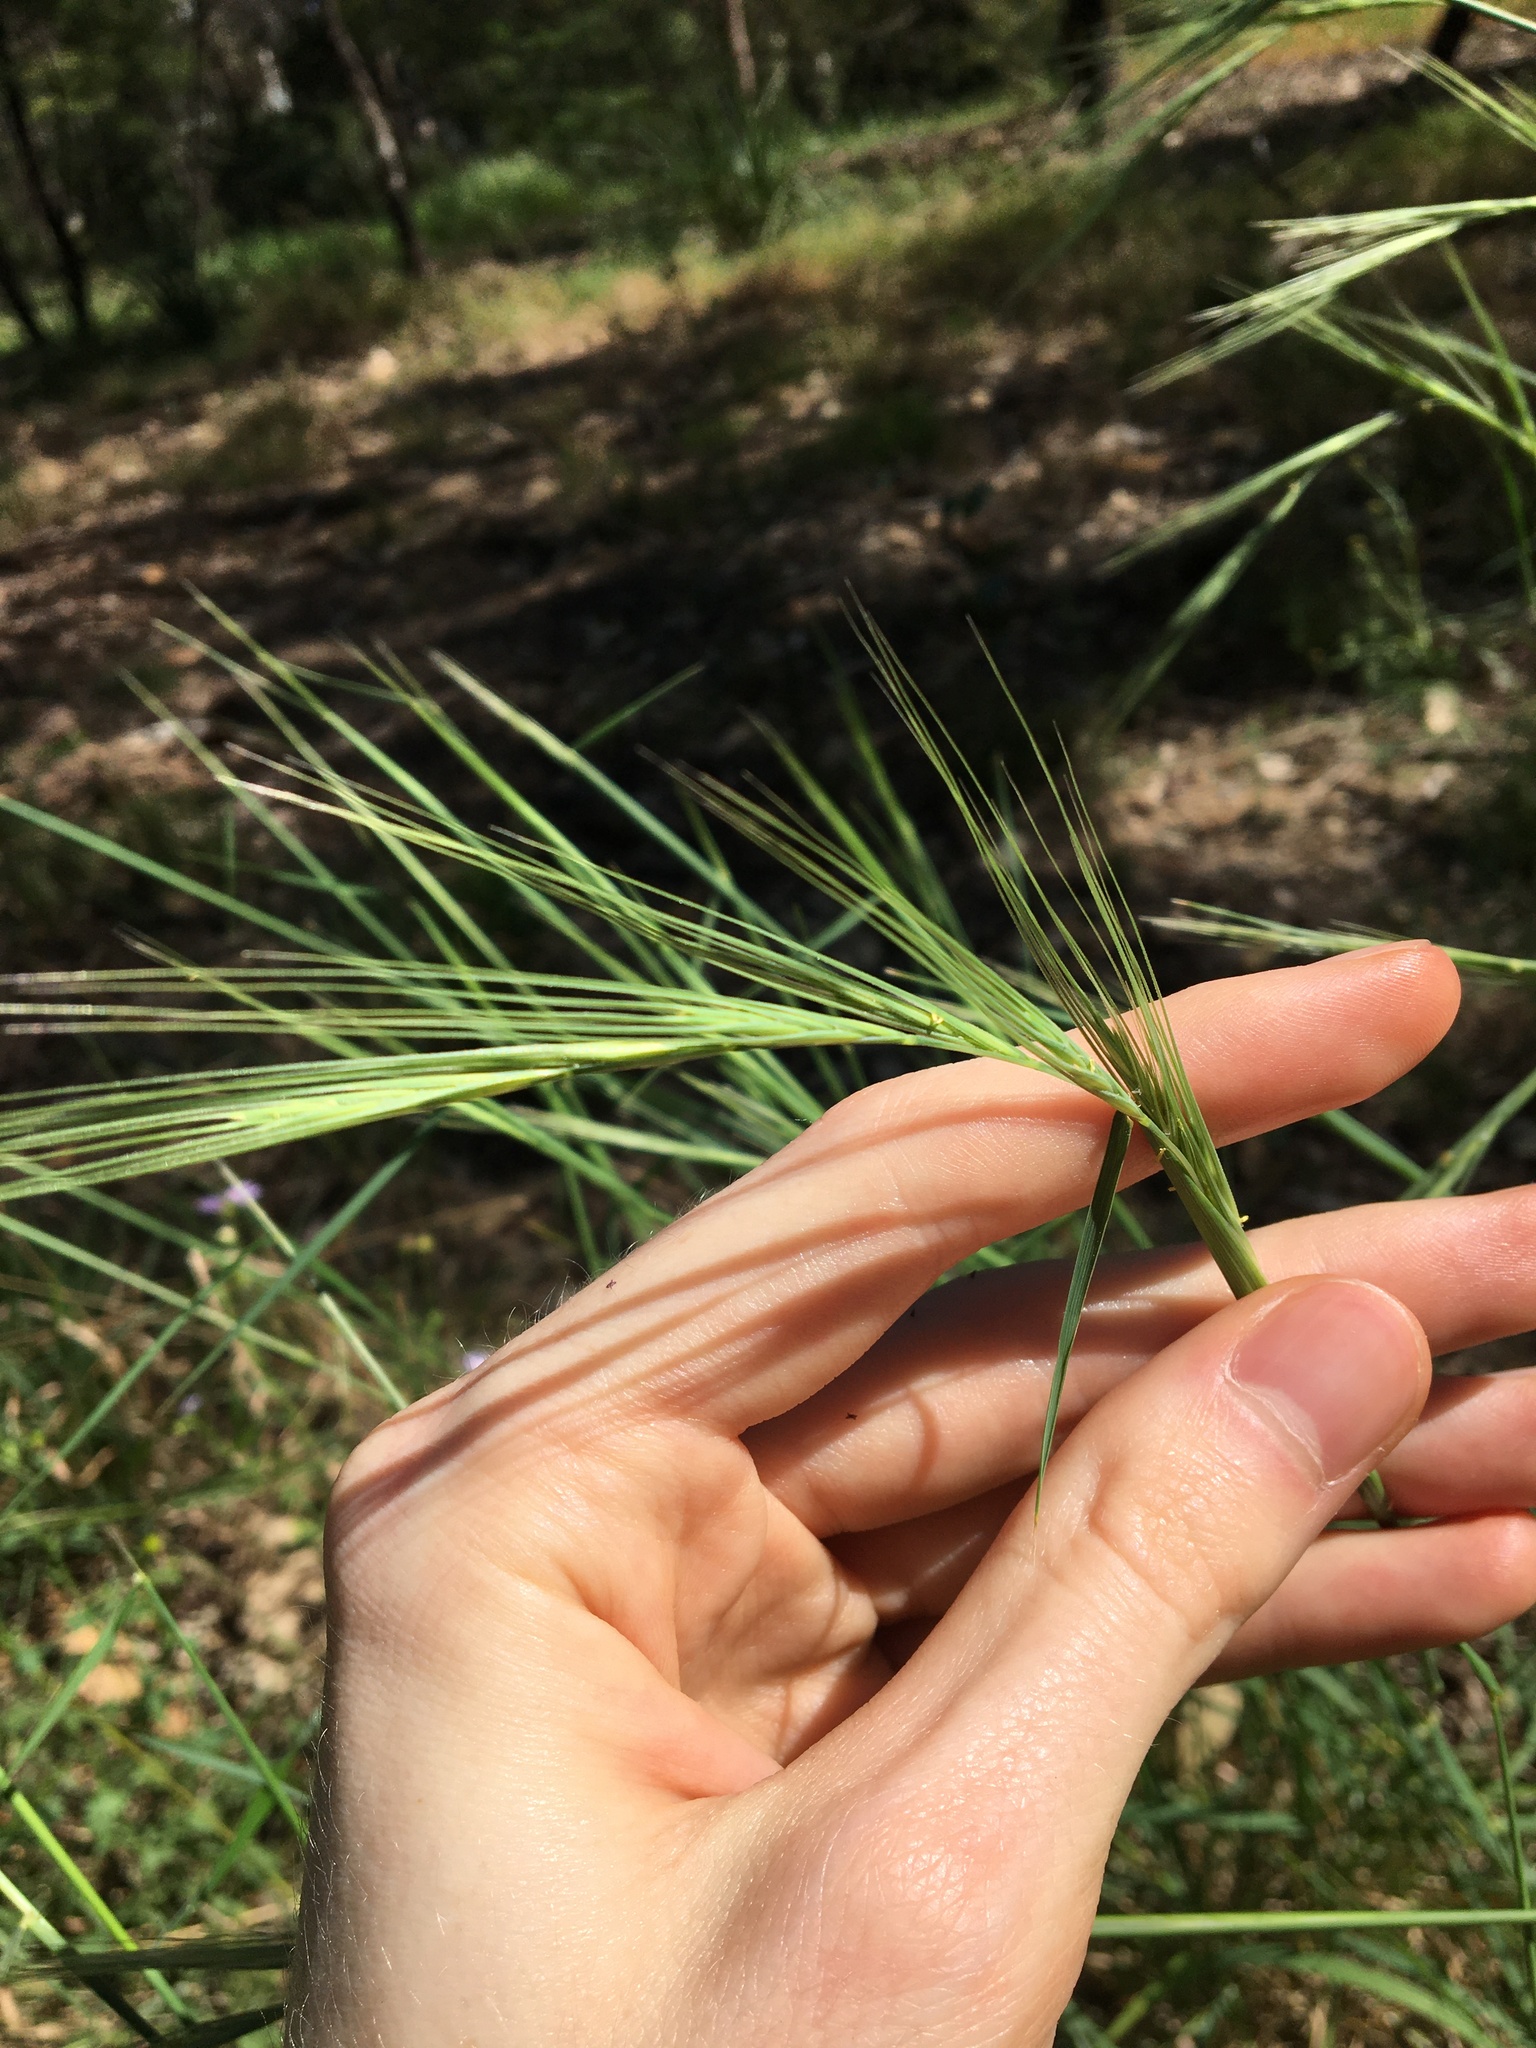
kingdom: Plantae
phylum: Tracheophyta
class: Liliopsida
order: Poales
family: Poaceae
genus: Anthosachne
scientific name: Anthosachne scabra
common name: Common wheatgrass
